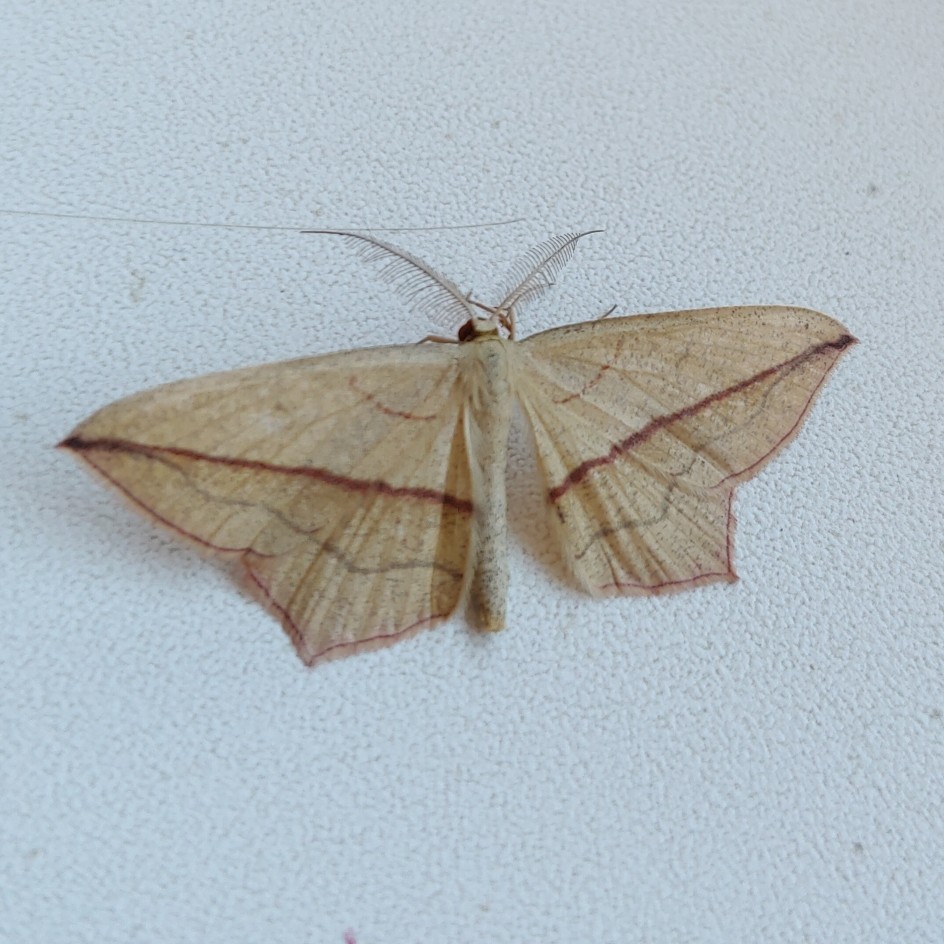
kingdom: Animalia
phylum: Arthropoda
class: Insecta
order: Lepidoptera
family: Geometridae
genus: Timandra
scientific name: Timandra comae
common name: Blood-vein
